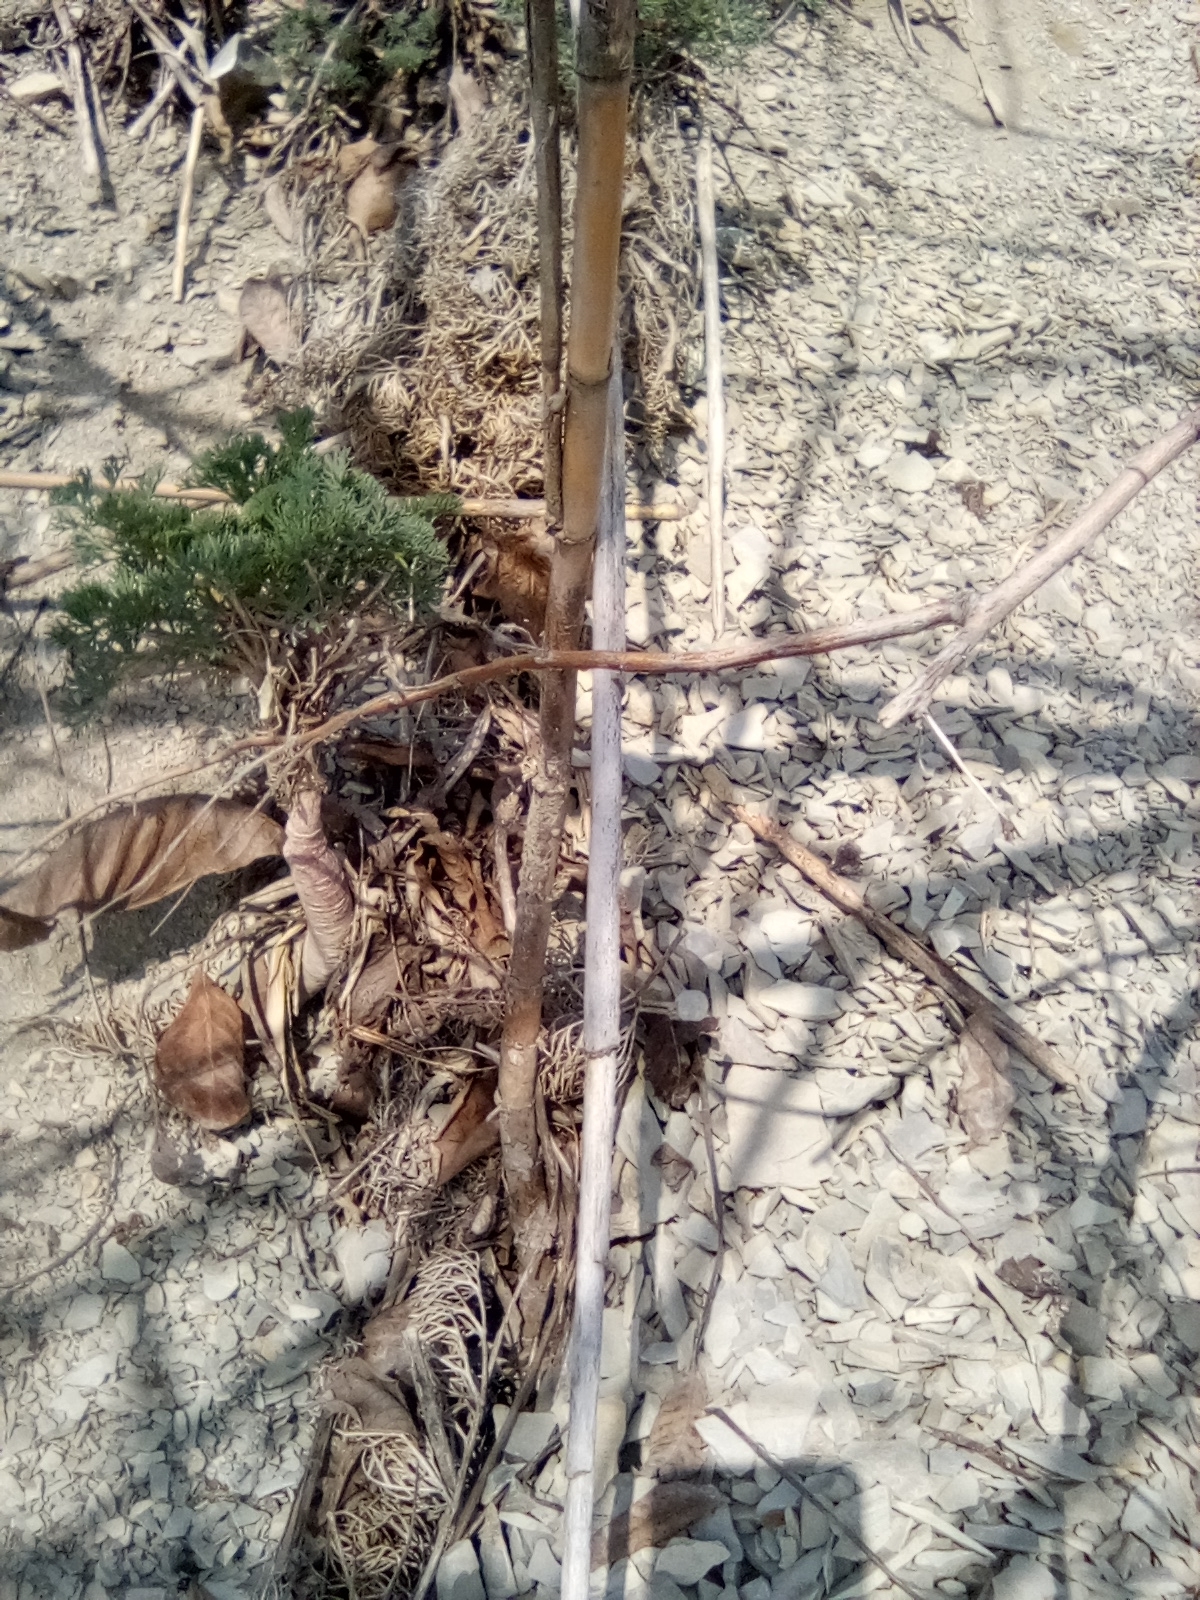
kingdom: Plantae
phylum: Tracheophyta
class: Magnoliopsida
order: Apiales
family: Apiaceae
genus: Seseli
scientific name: Seseli ponticum
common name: Pontic seseli
